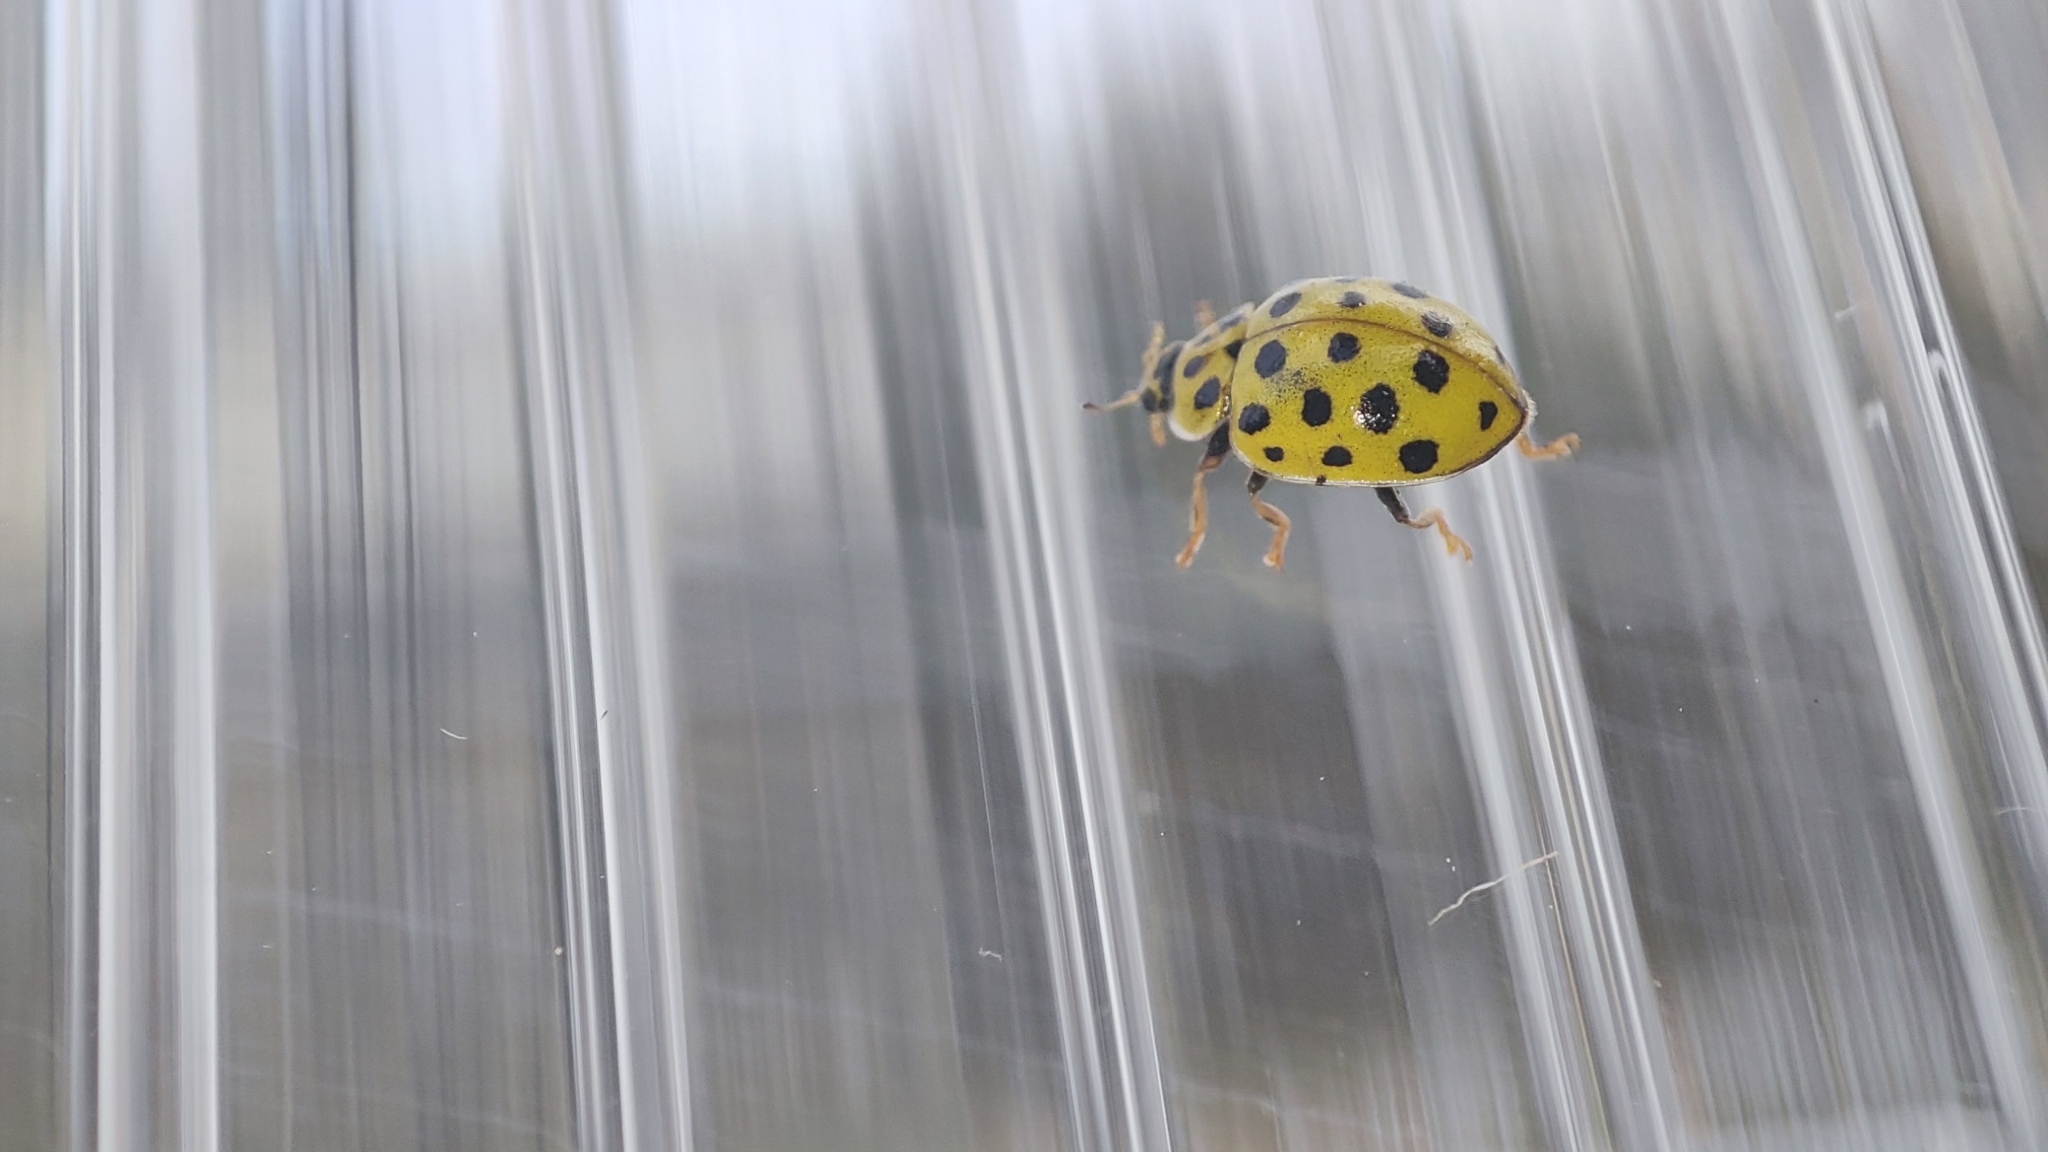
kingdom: Animalia
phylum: Arthropoda
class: Insecta
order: Coleoptera
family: Coccinellidae
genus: Psyllobora
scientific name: Psyllobora vigintiduopunctata
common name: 22-spot ladybird
